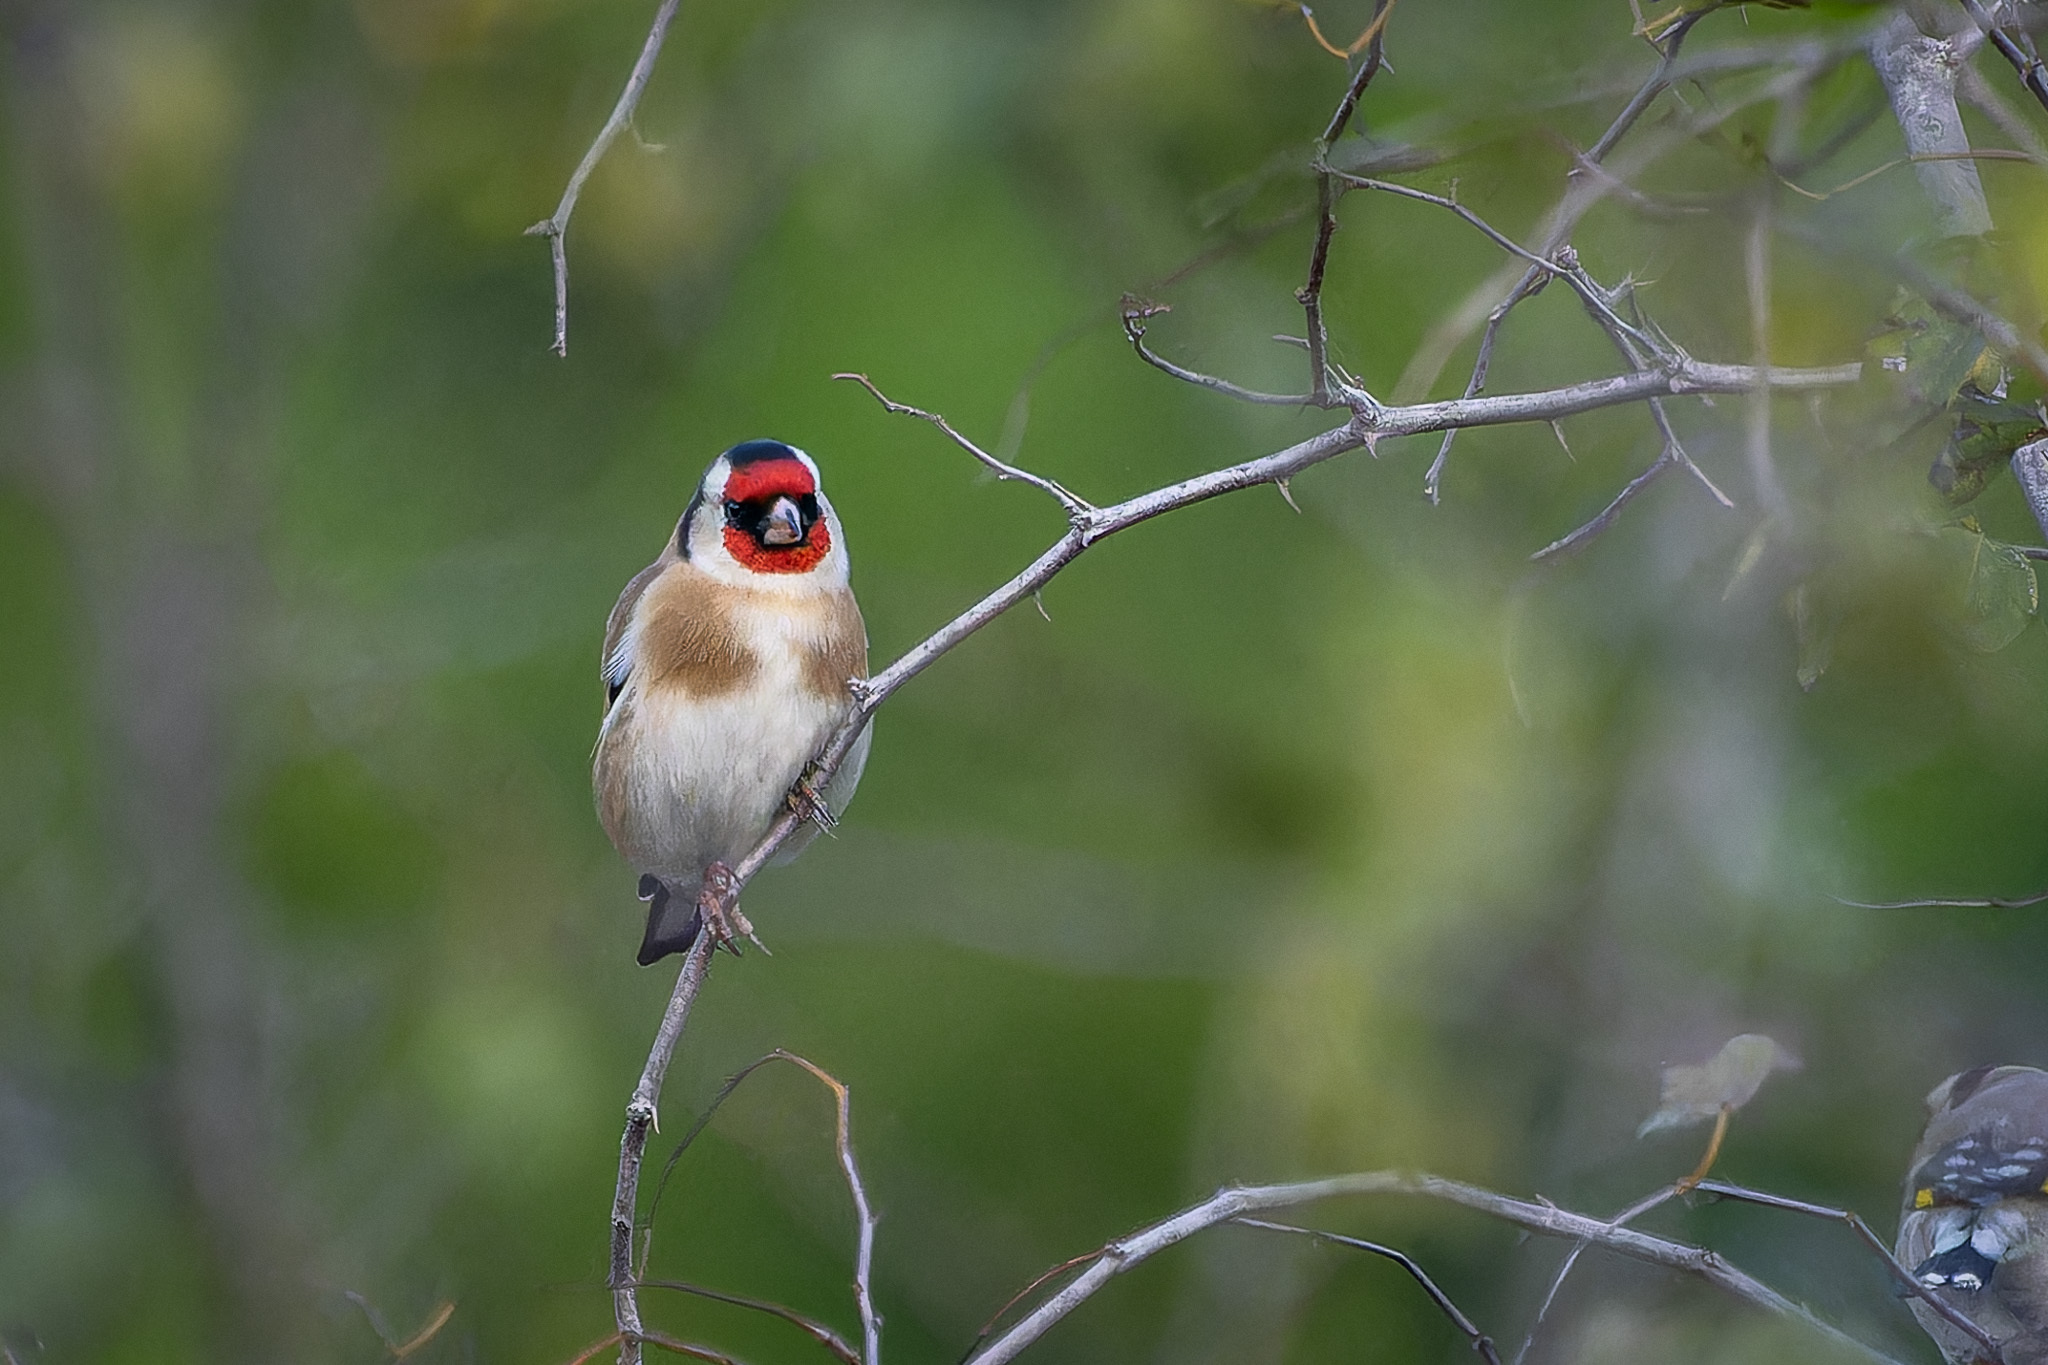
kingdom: Animalia
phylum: Chordata
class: Aves
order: Passeriformes
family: Fringillidae
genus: Carduelis
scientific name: Carduelis carduelis
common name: European goldfinch
